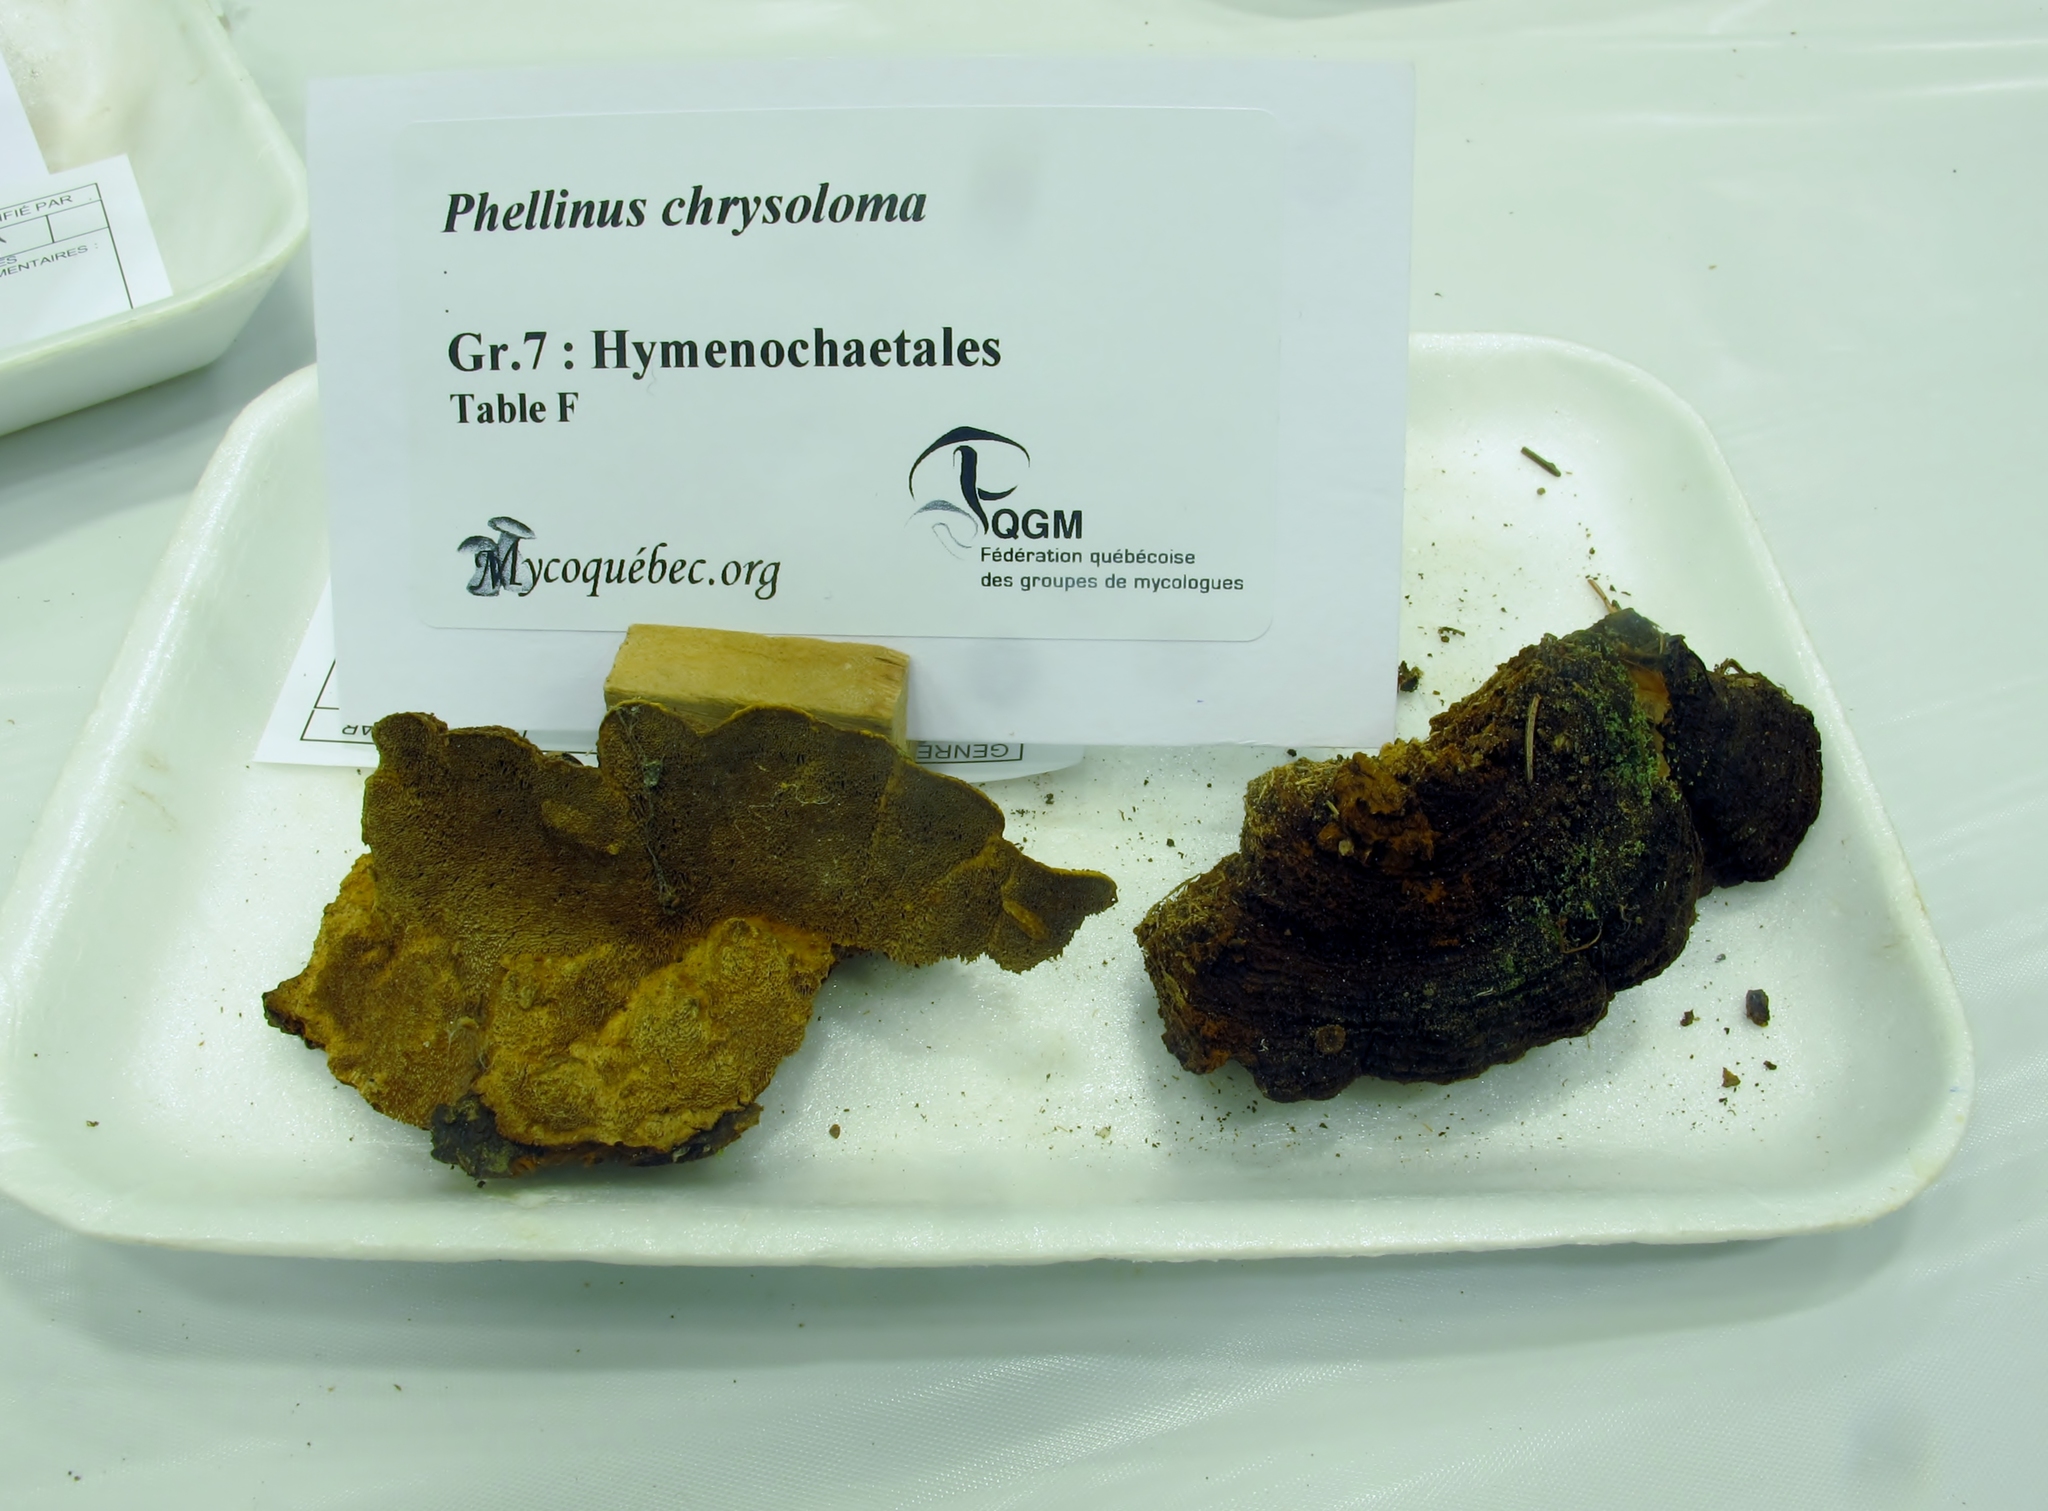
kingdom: Fungi
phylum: Basidiomycota
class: Agaricomycetes
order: Hymenochaetales
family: Hymenochaetaceae
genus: Phellinus
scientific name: Phellinus chrysoloma
